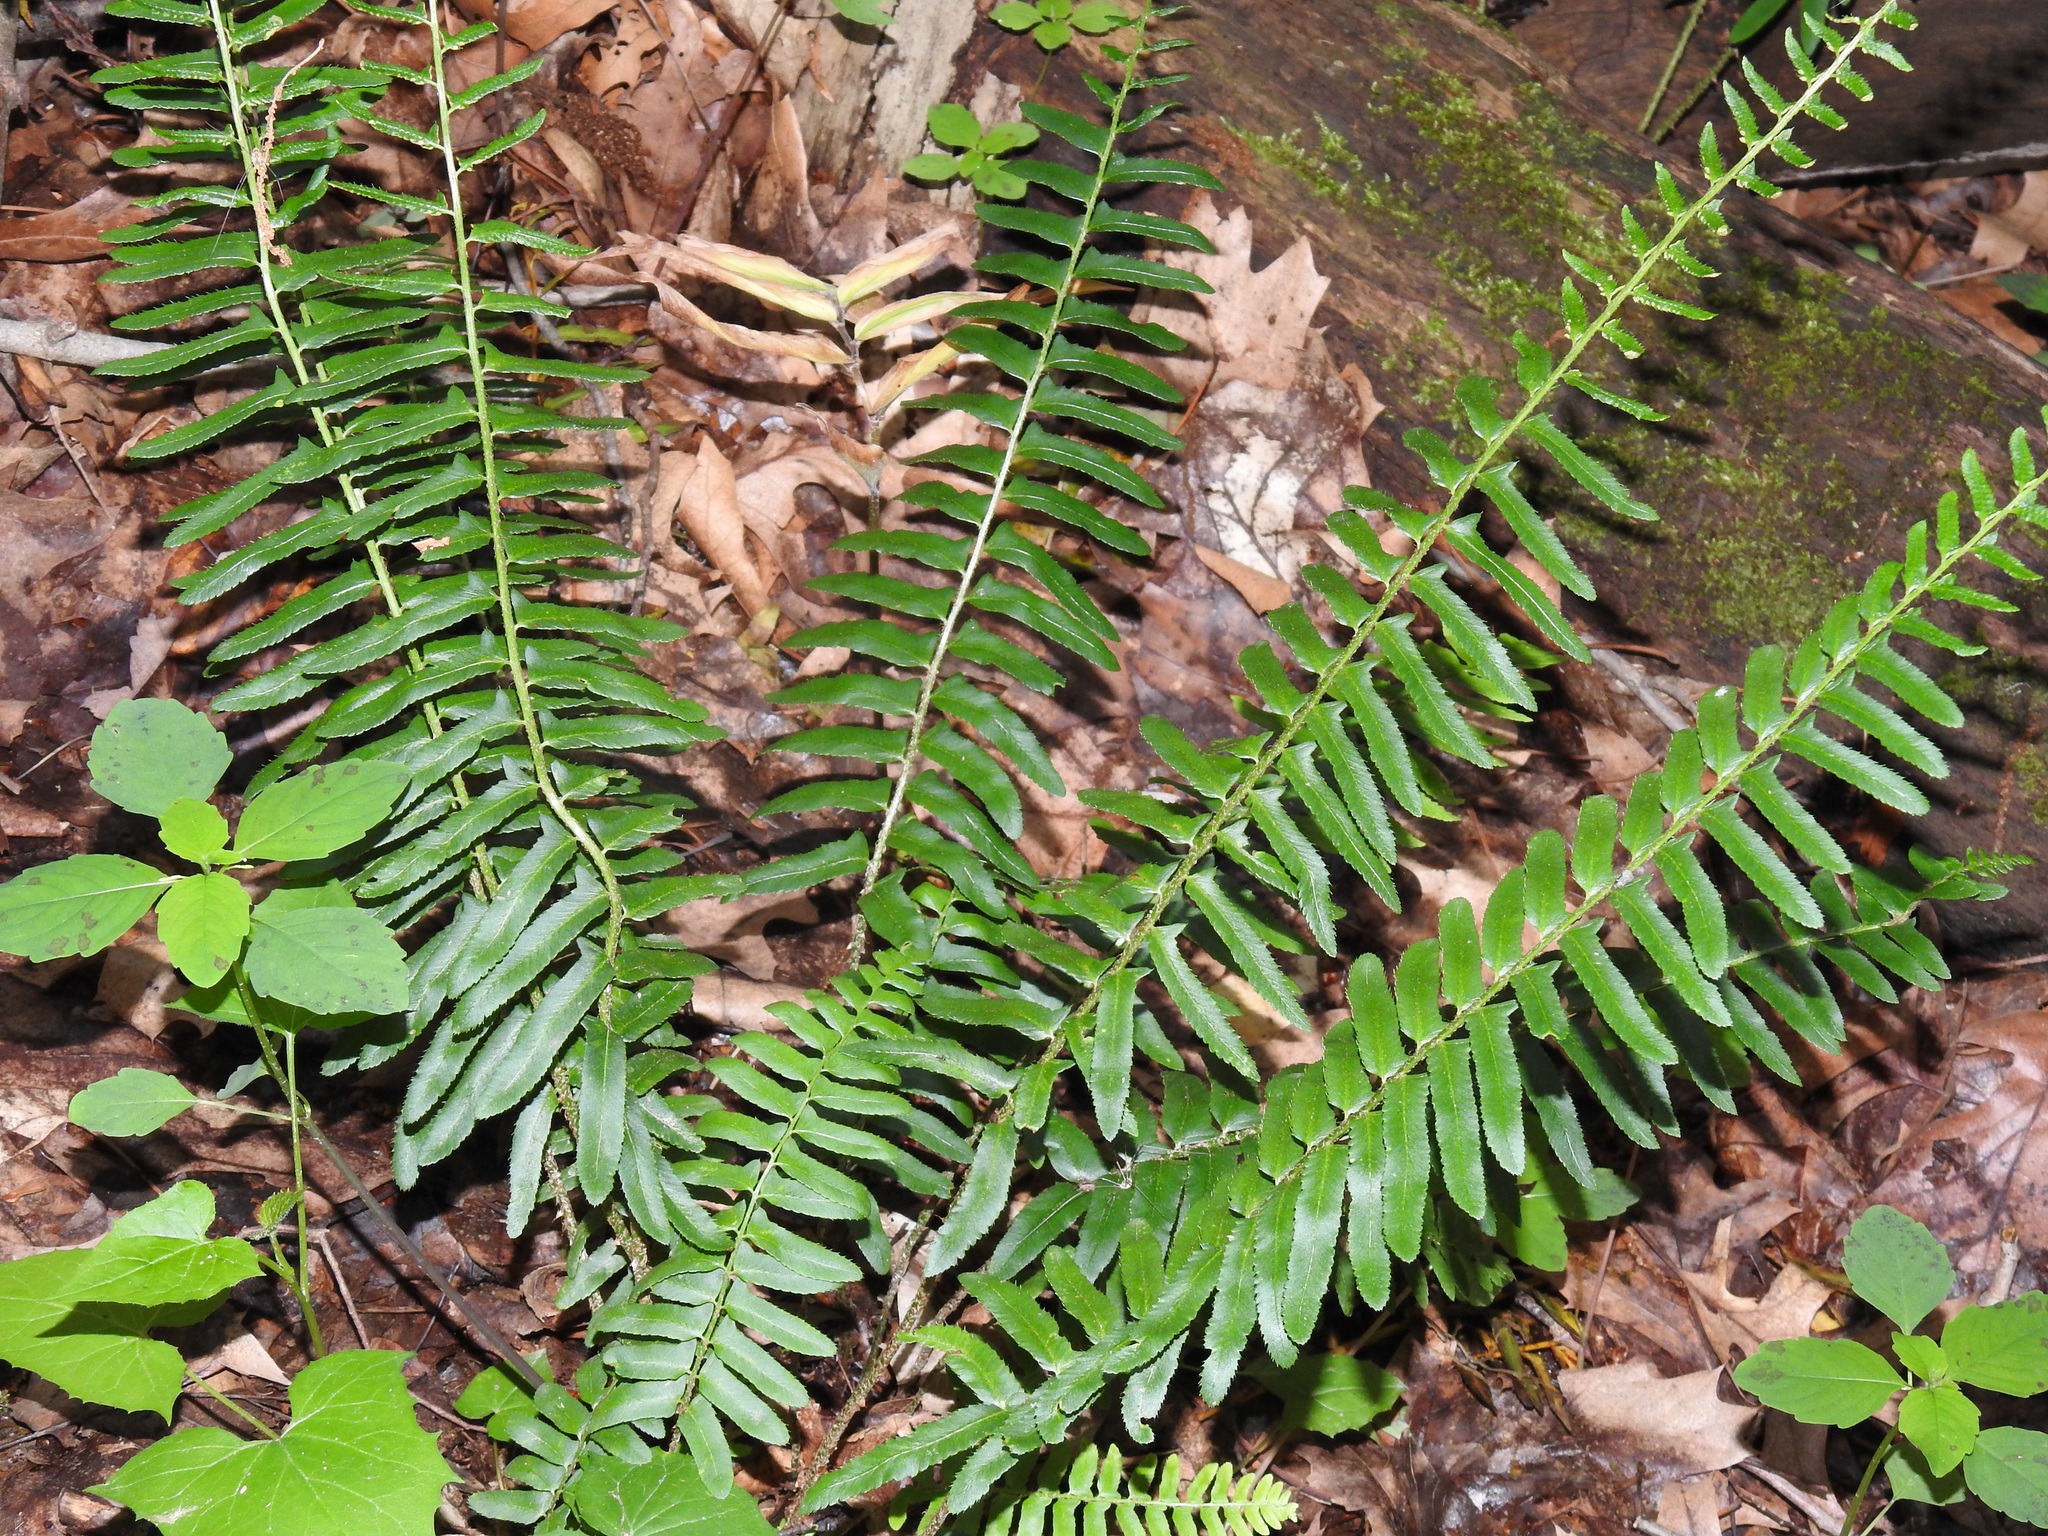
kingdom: Plantae
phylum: Tracheophyta
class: Polypodiopsida
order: Polypodiales
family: Dryopteridaceae
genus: Polystichum
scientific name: Polystichum acrostichoides
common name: Christmas fern
